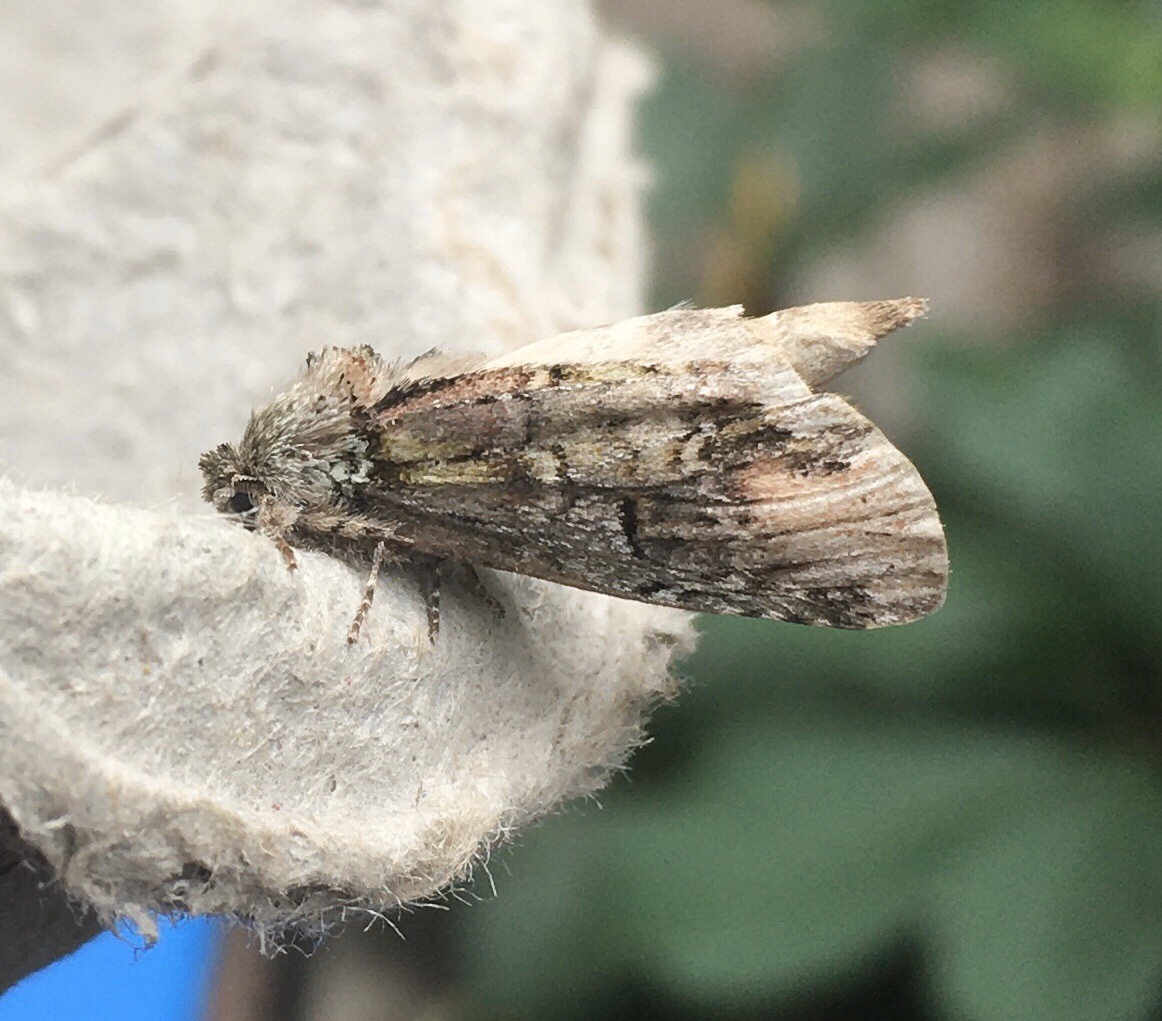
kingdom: Animalia
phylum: Arthropoda
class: Insecta
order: Lepidoptera
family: Notodontidae
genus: Schizura
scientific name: Schizura
